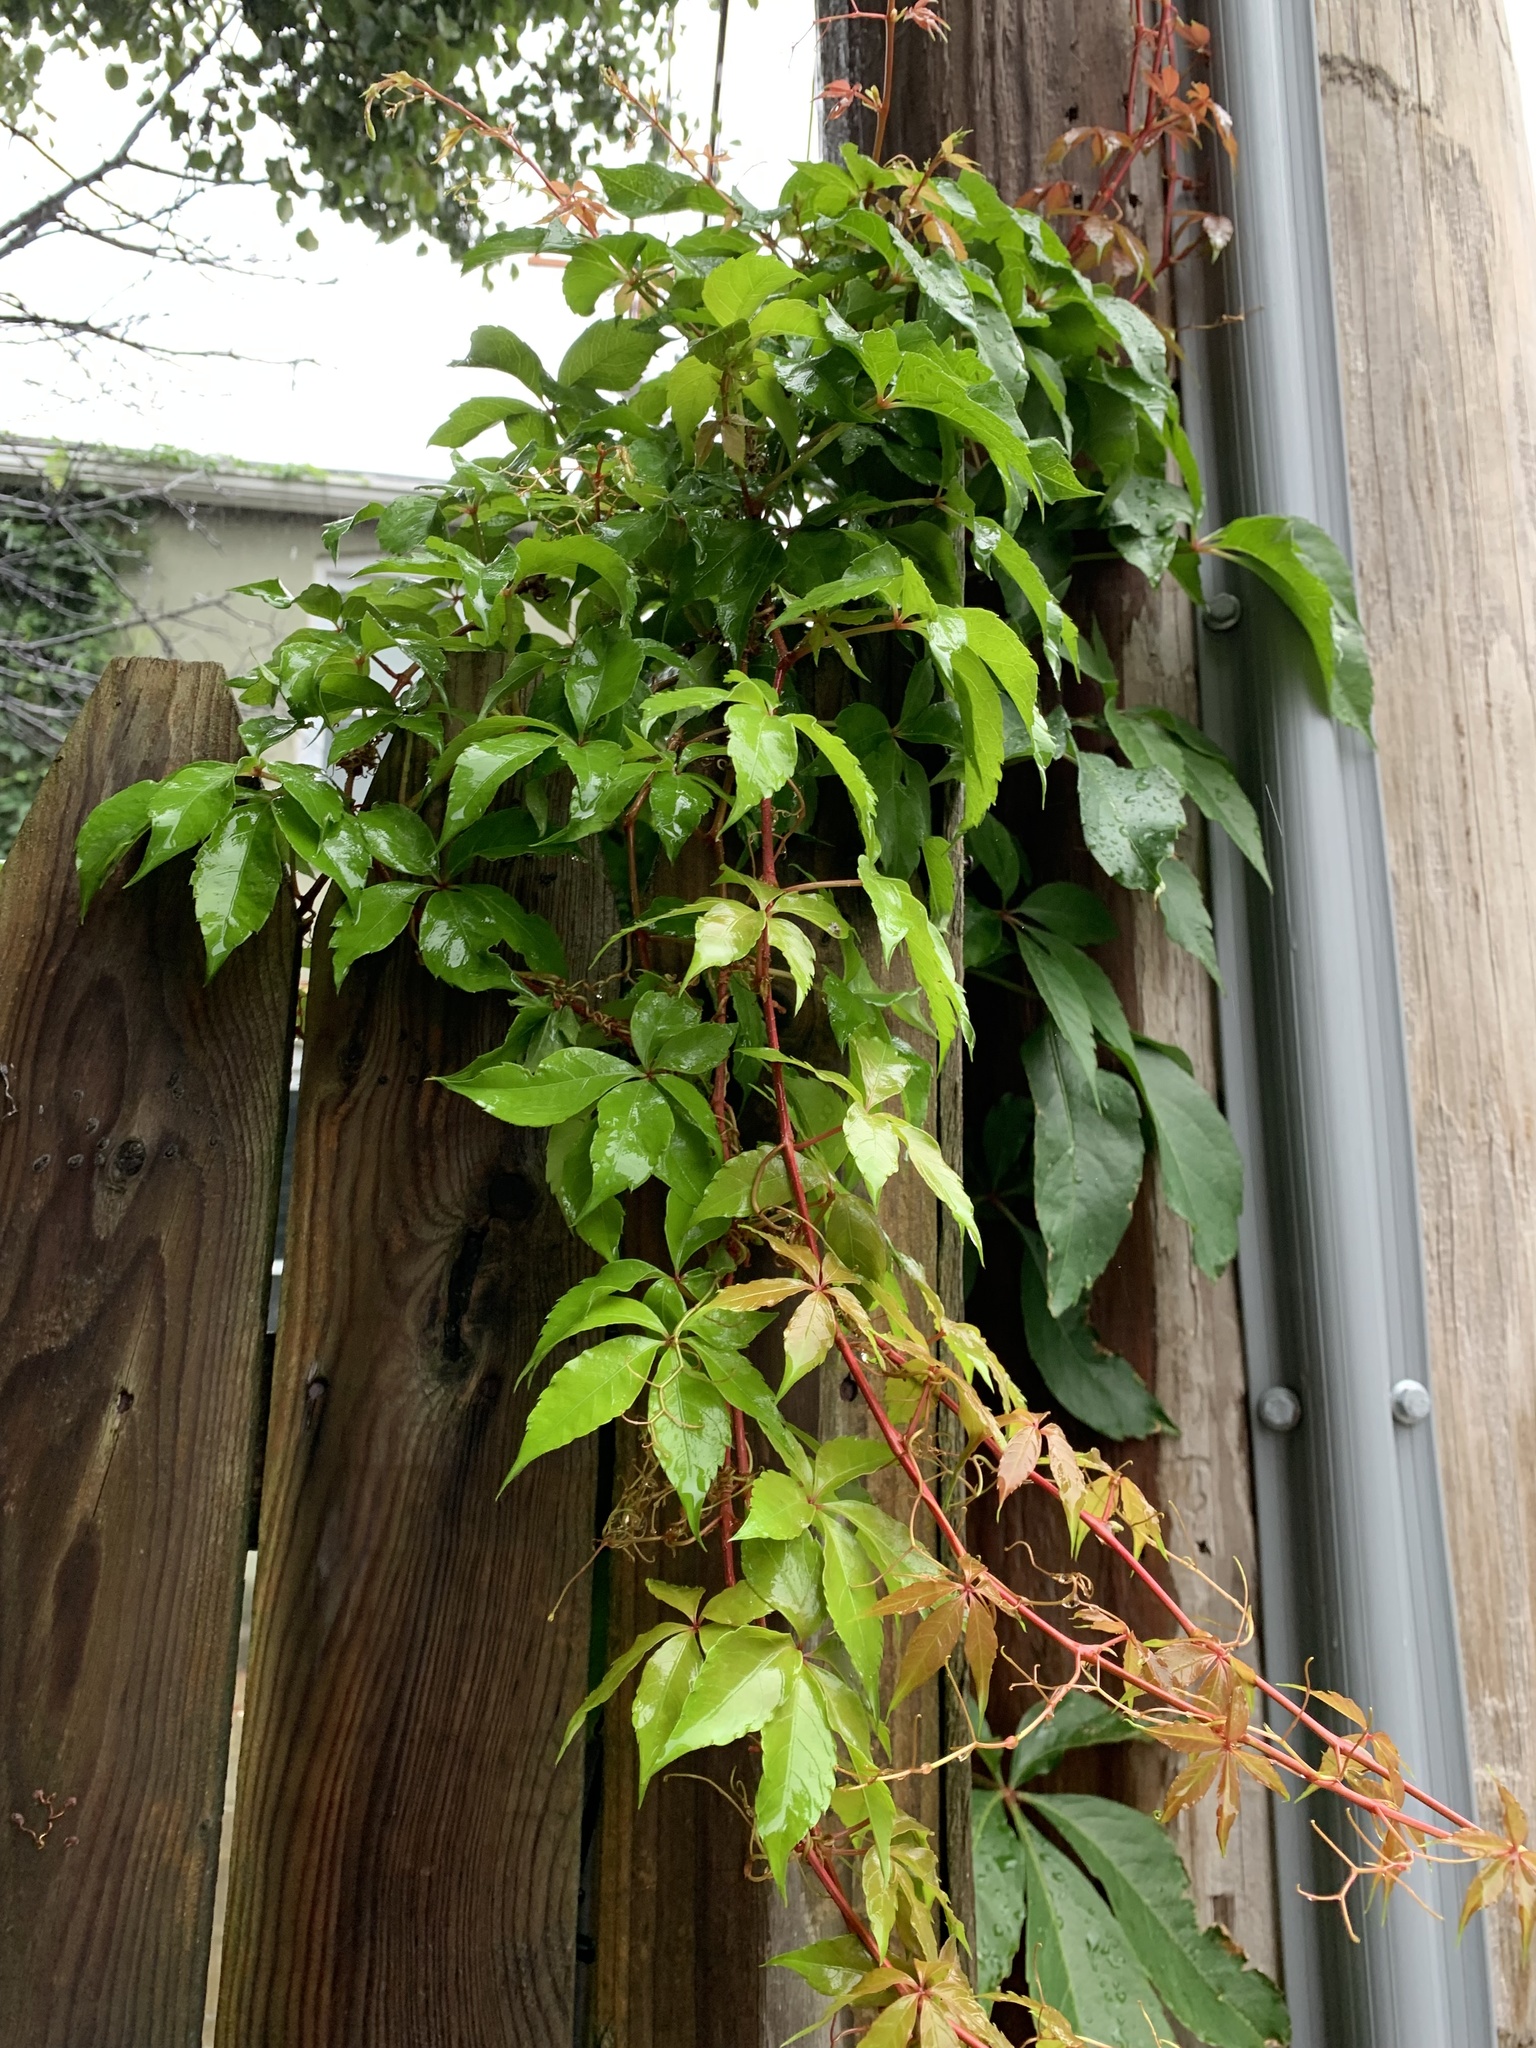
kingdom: Plantae
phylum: Tracheophyta
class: Magnoliopsida
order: Vitales
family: Vitaceae
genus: Parthenocissus
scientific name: Parthenocissus quinquefolia
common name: Virginia-creeper
